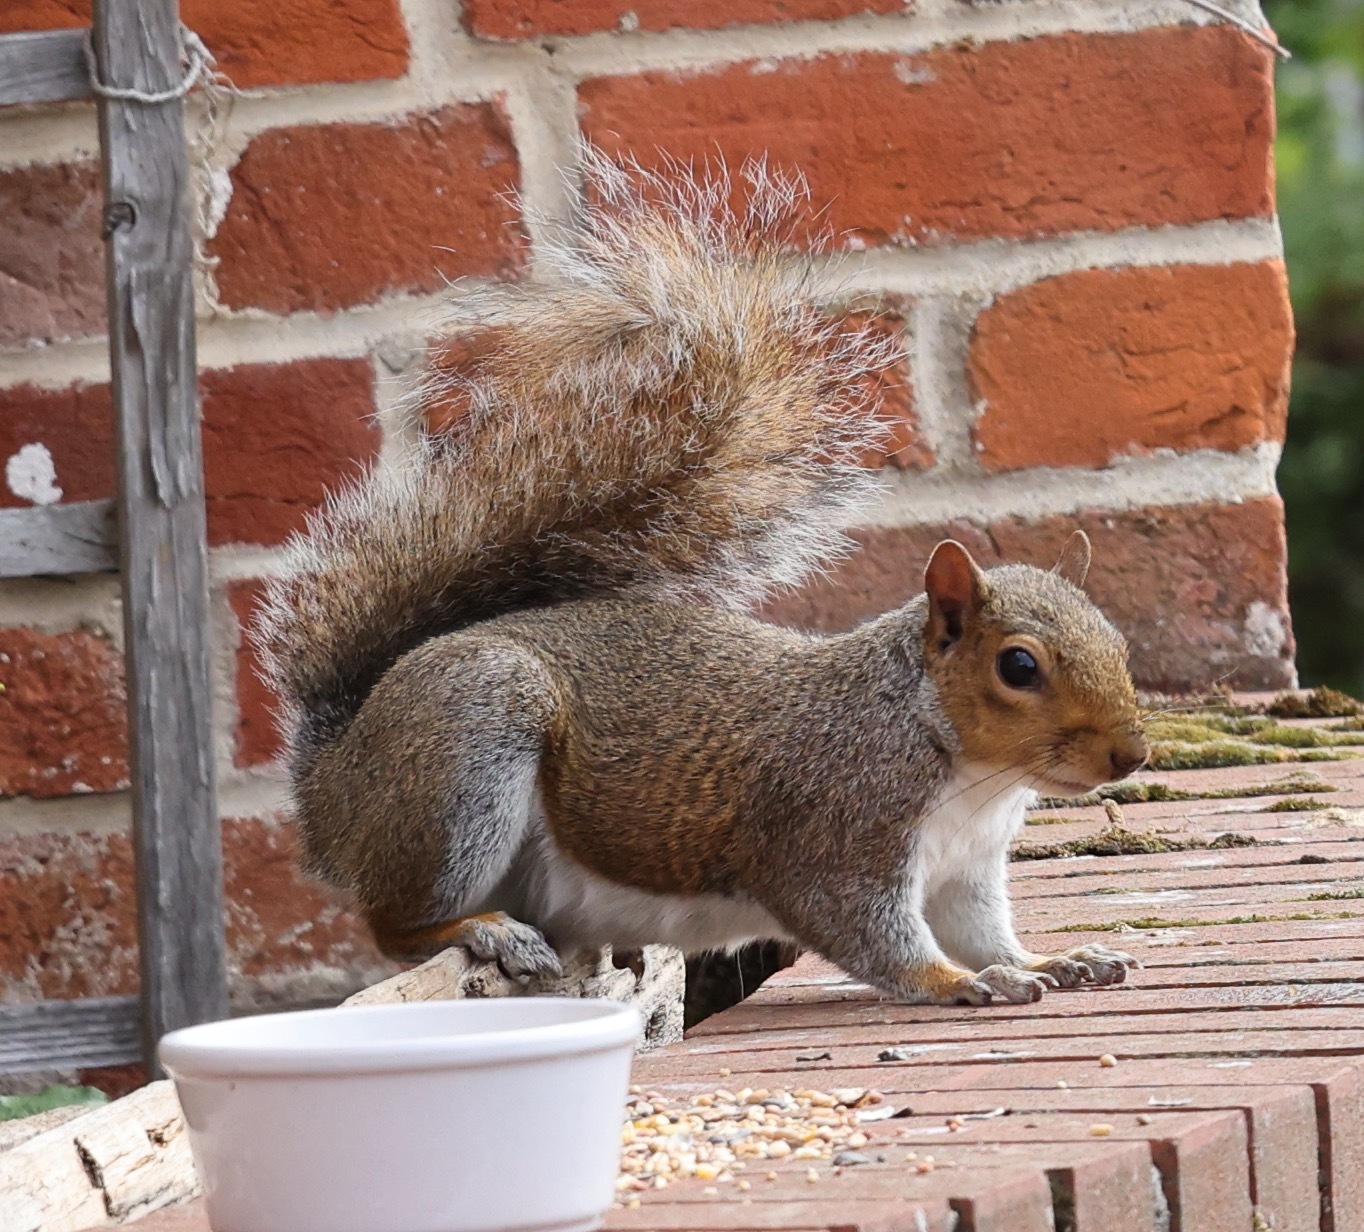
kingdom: Animalia
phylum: Chordata
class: Mammalia
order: Rodentia
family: Sciuridae
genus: Sciurus
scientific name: Sciurus carolinensis
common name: Eastern gray squirrel
